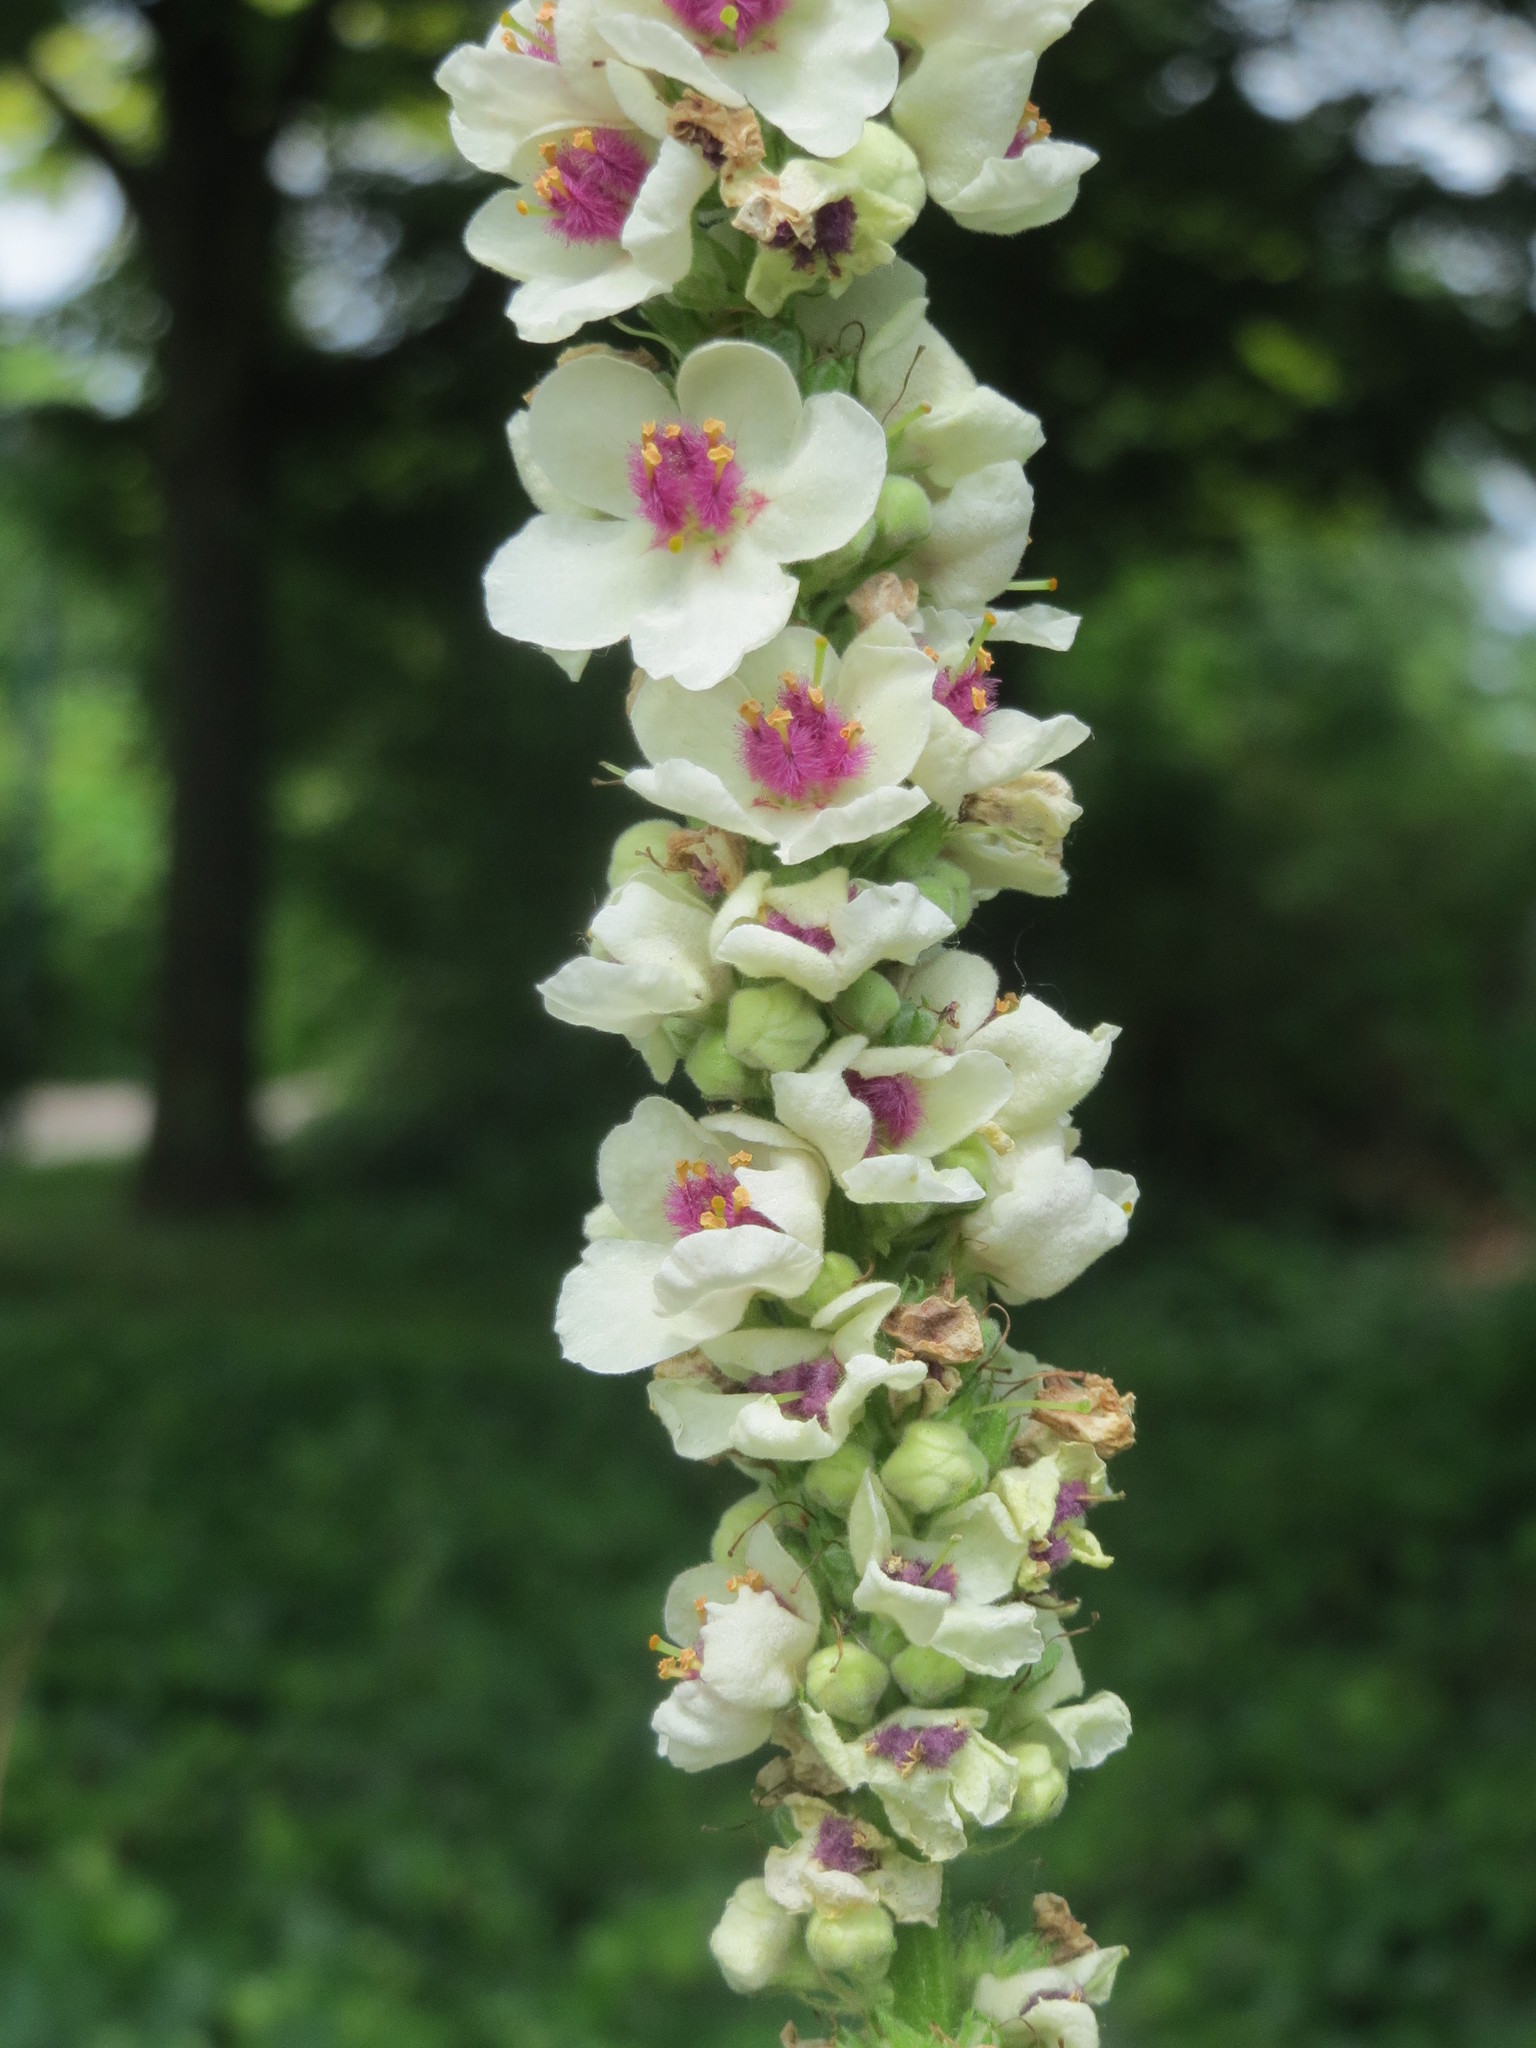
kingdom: Plantae
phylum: Tracheophyta
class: Magnoliopsida
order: Lamiales
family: Scrophulariaceae
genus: Verbascum
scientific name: Verbascum
